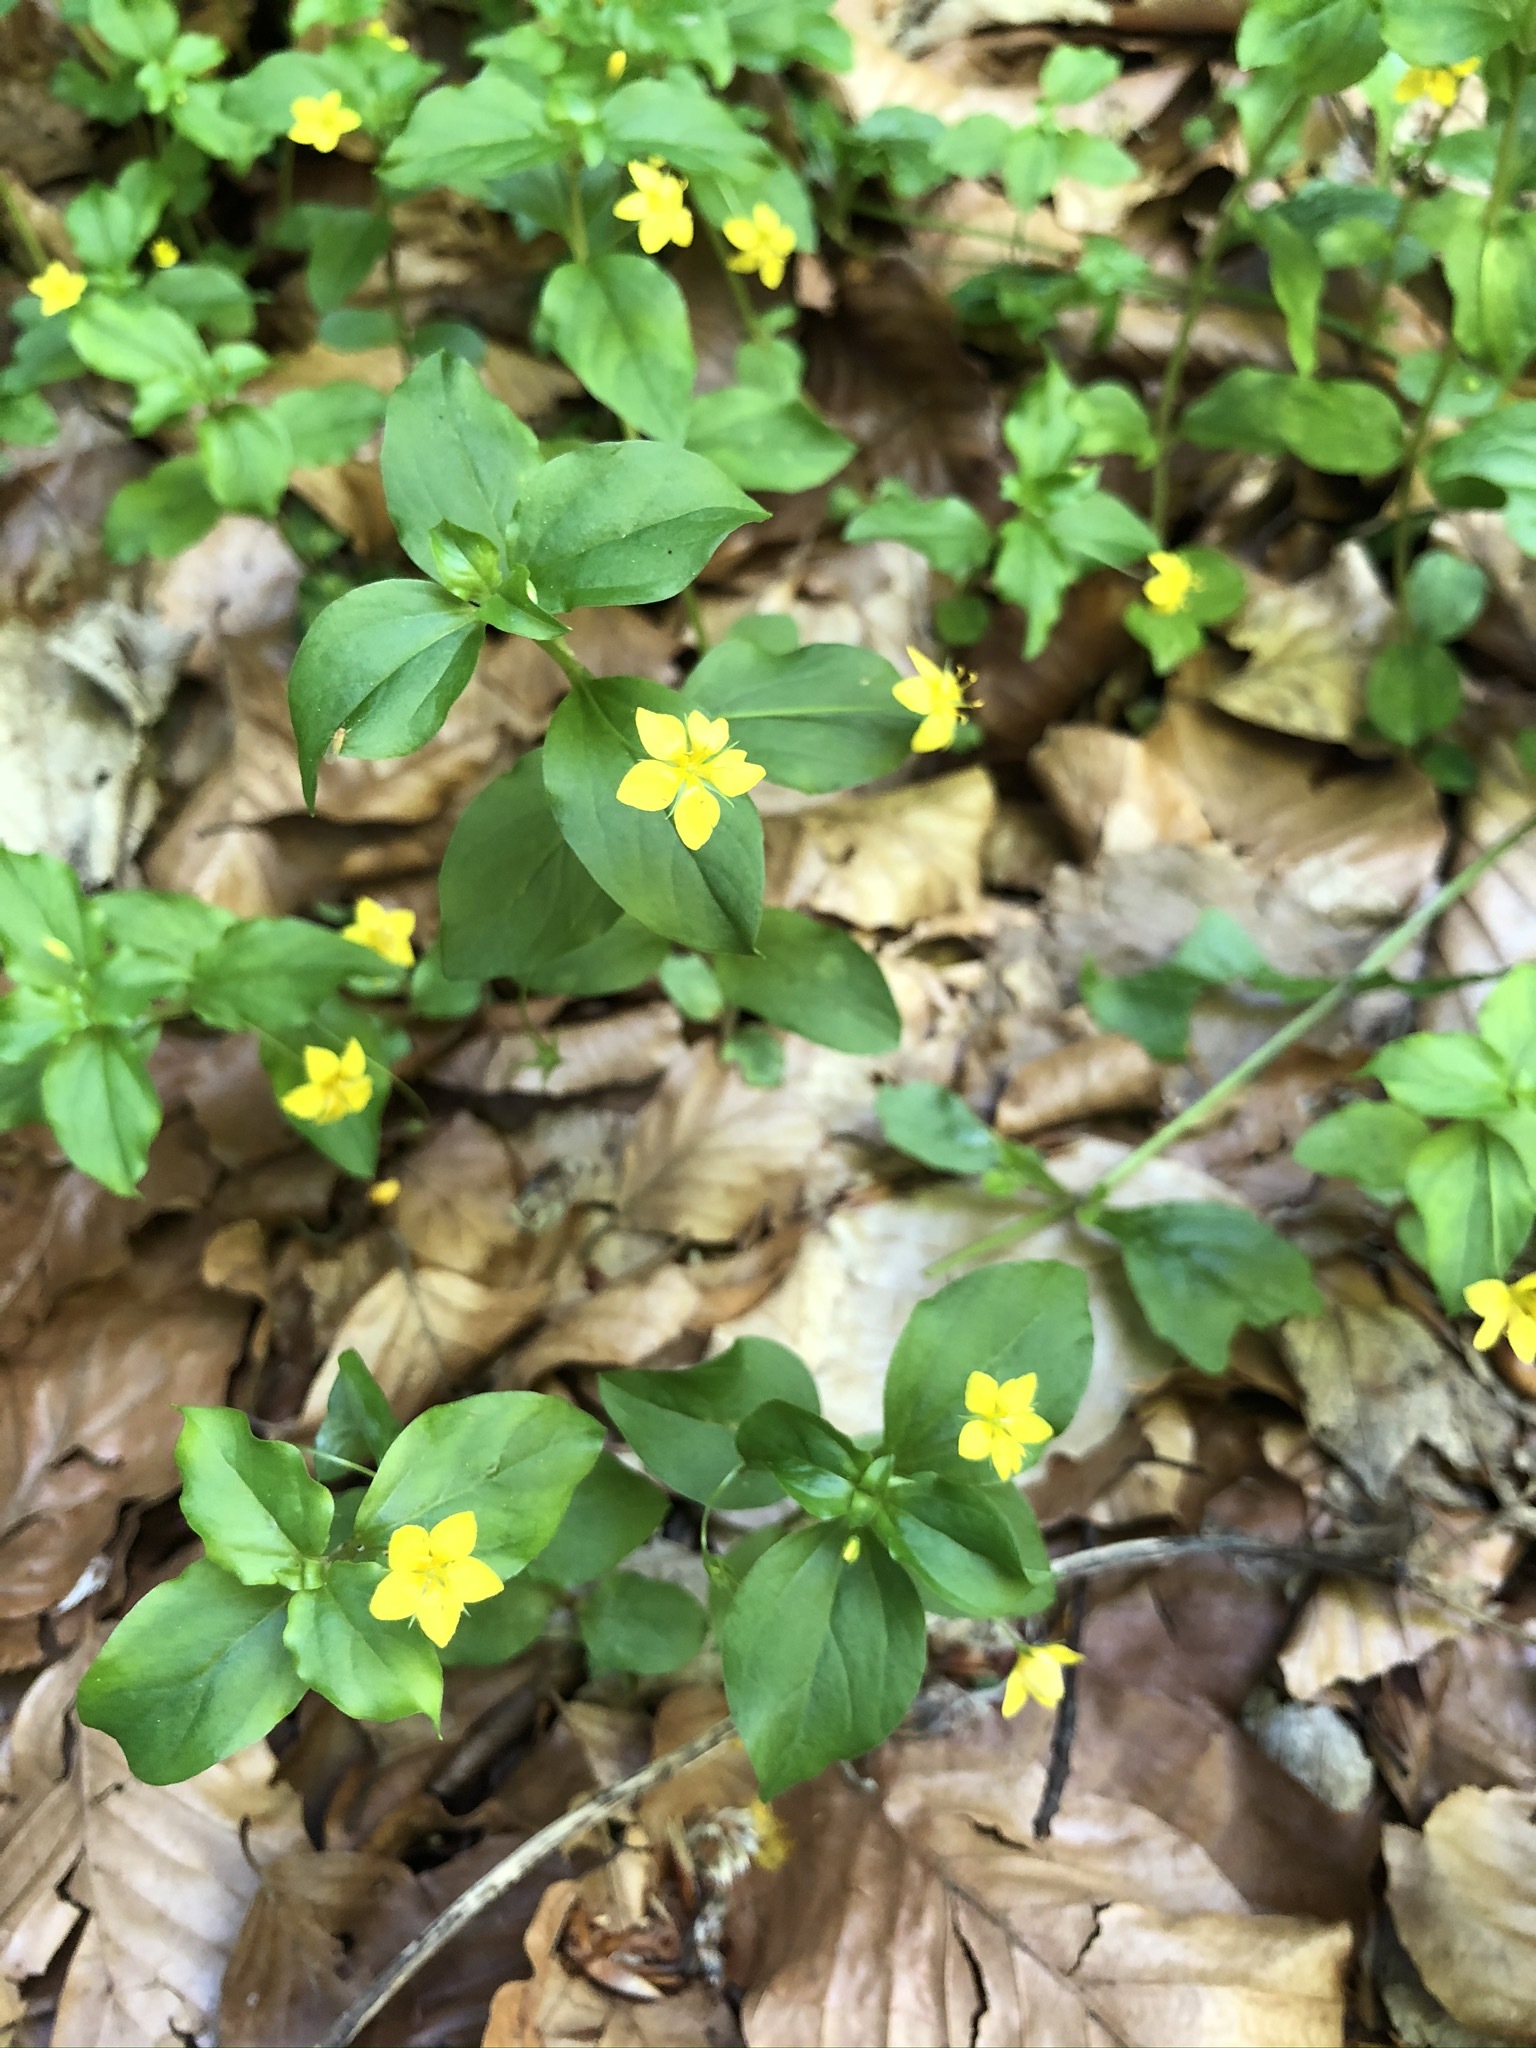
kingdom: Plantae
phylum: Tracheophyta
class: Magnoliopsida
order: Ericales
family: Primulaceae
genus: Lysimachia
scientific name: Lysimachia nemorum
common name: Yellow pimpernel
